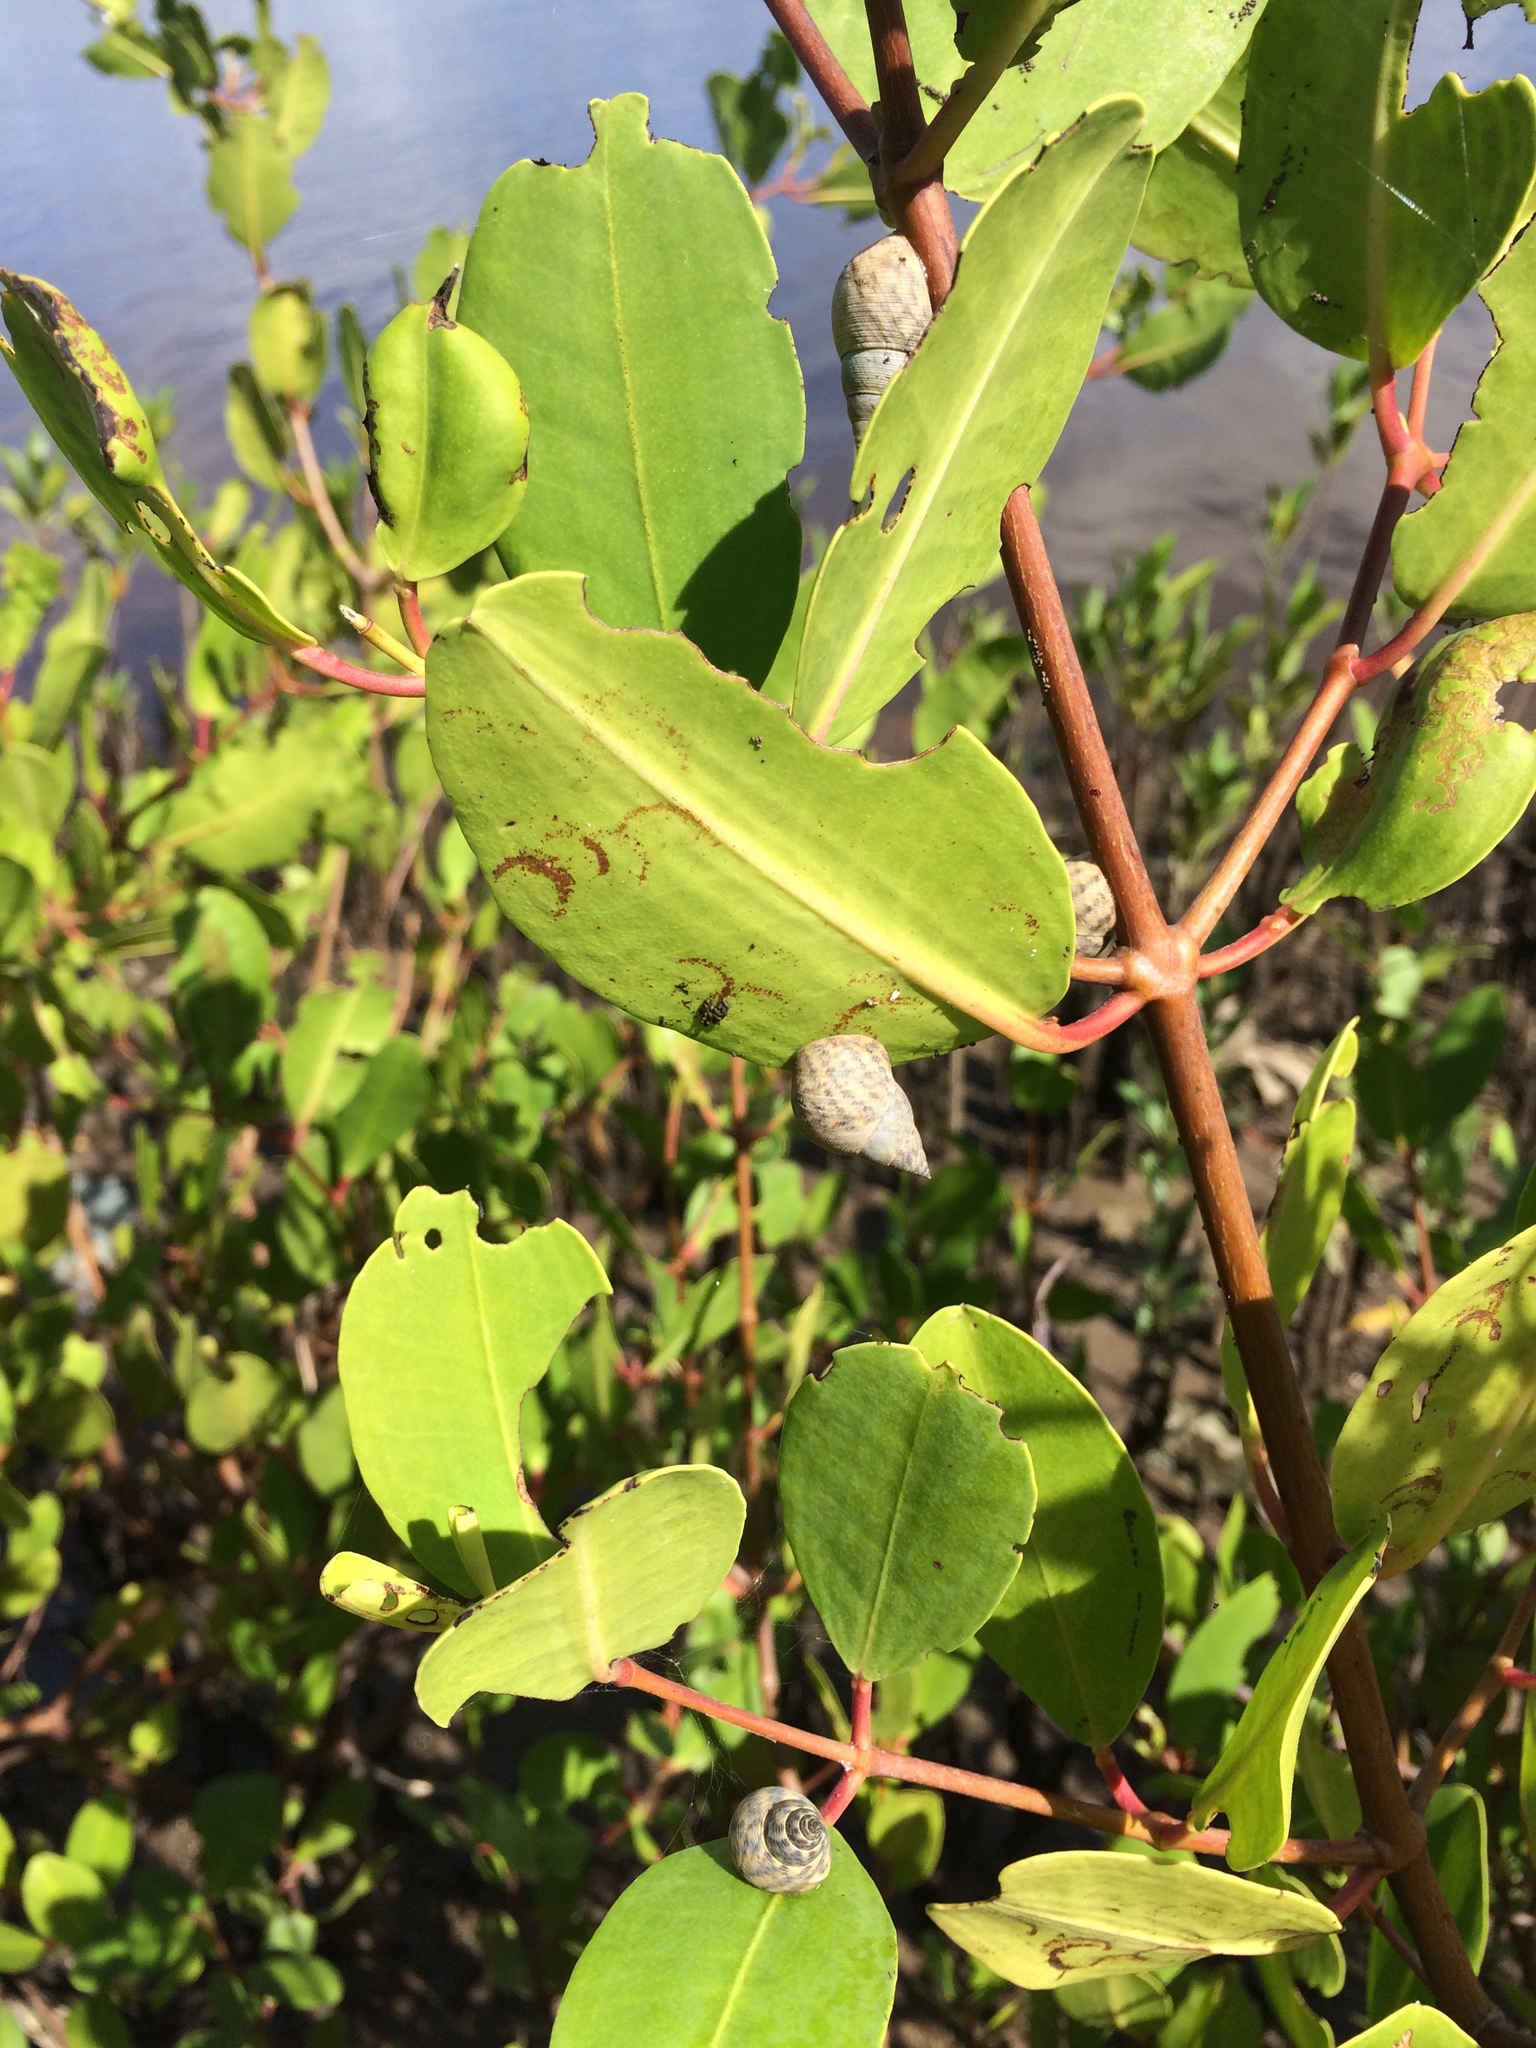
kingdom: Animalia
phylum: Mollusca
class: Gastropoda
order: Littorinimorpha
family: Littorinidae
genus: Littoraria
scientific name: Littoraria angulifera
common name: Mangrove periwinkle
